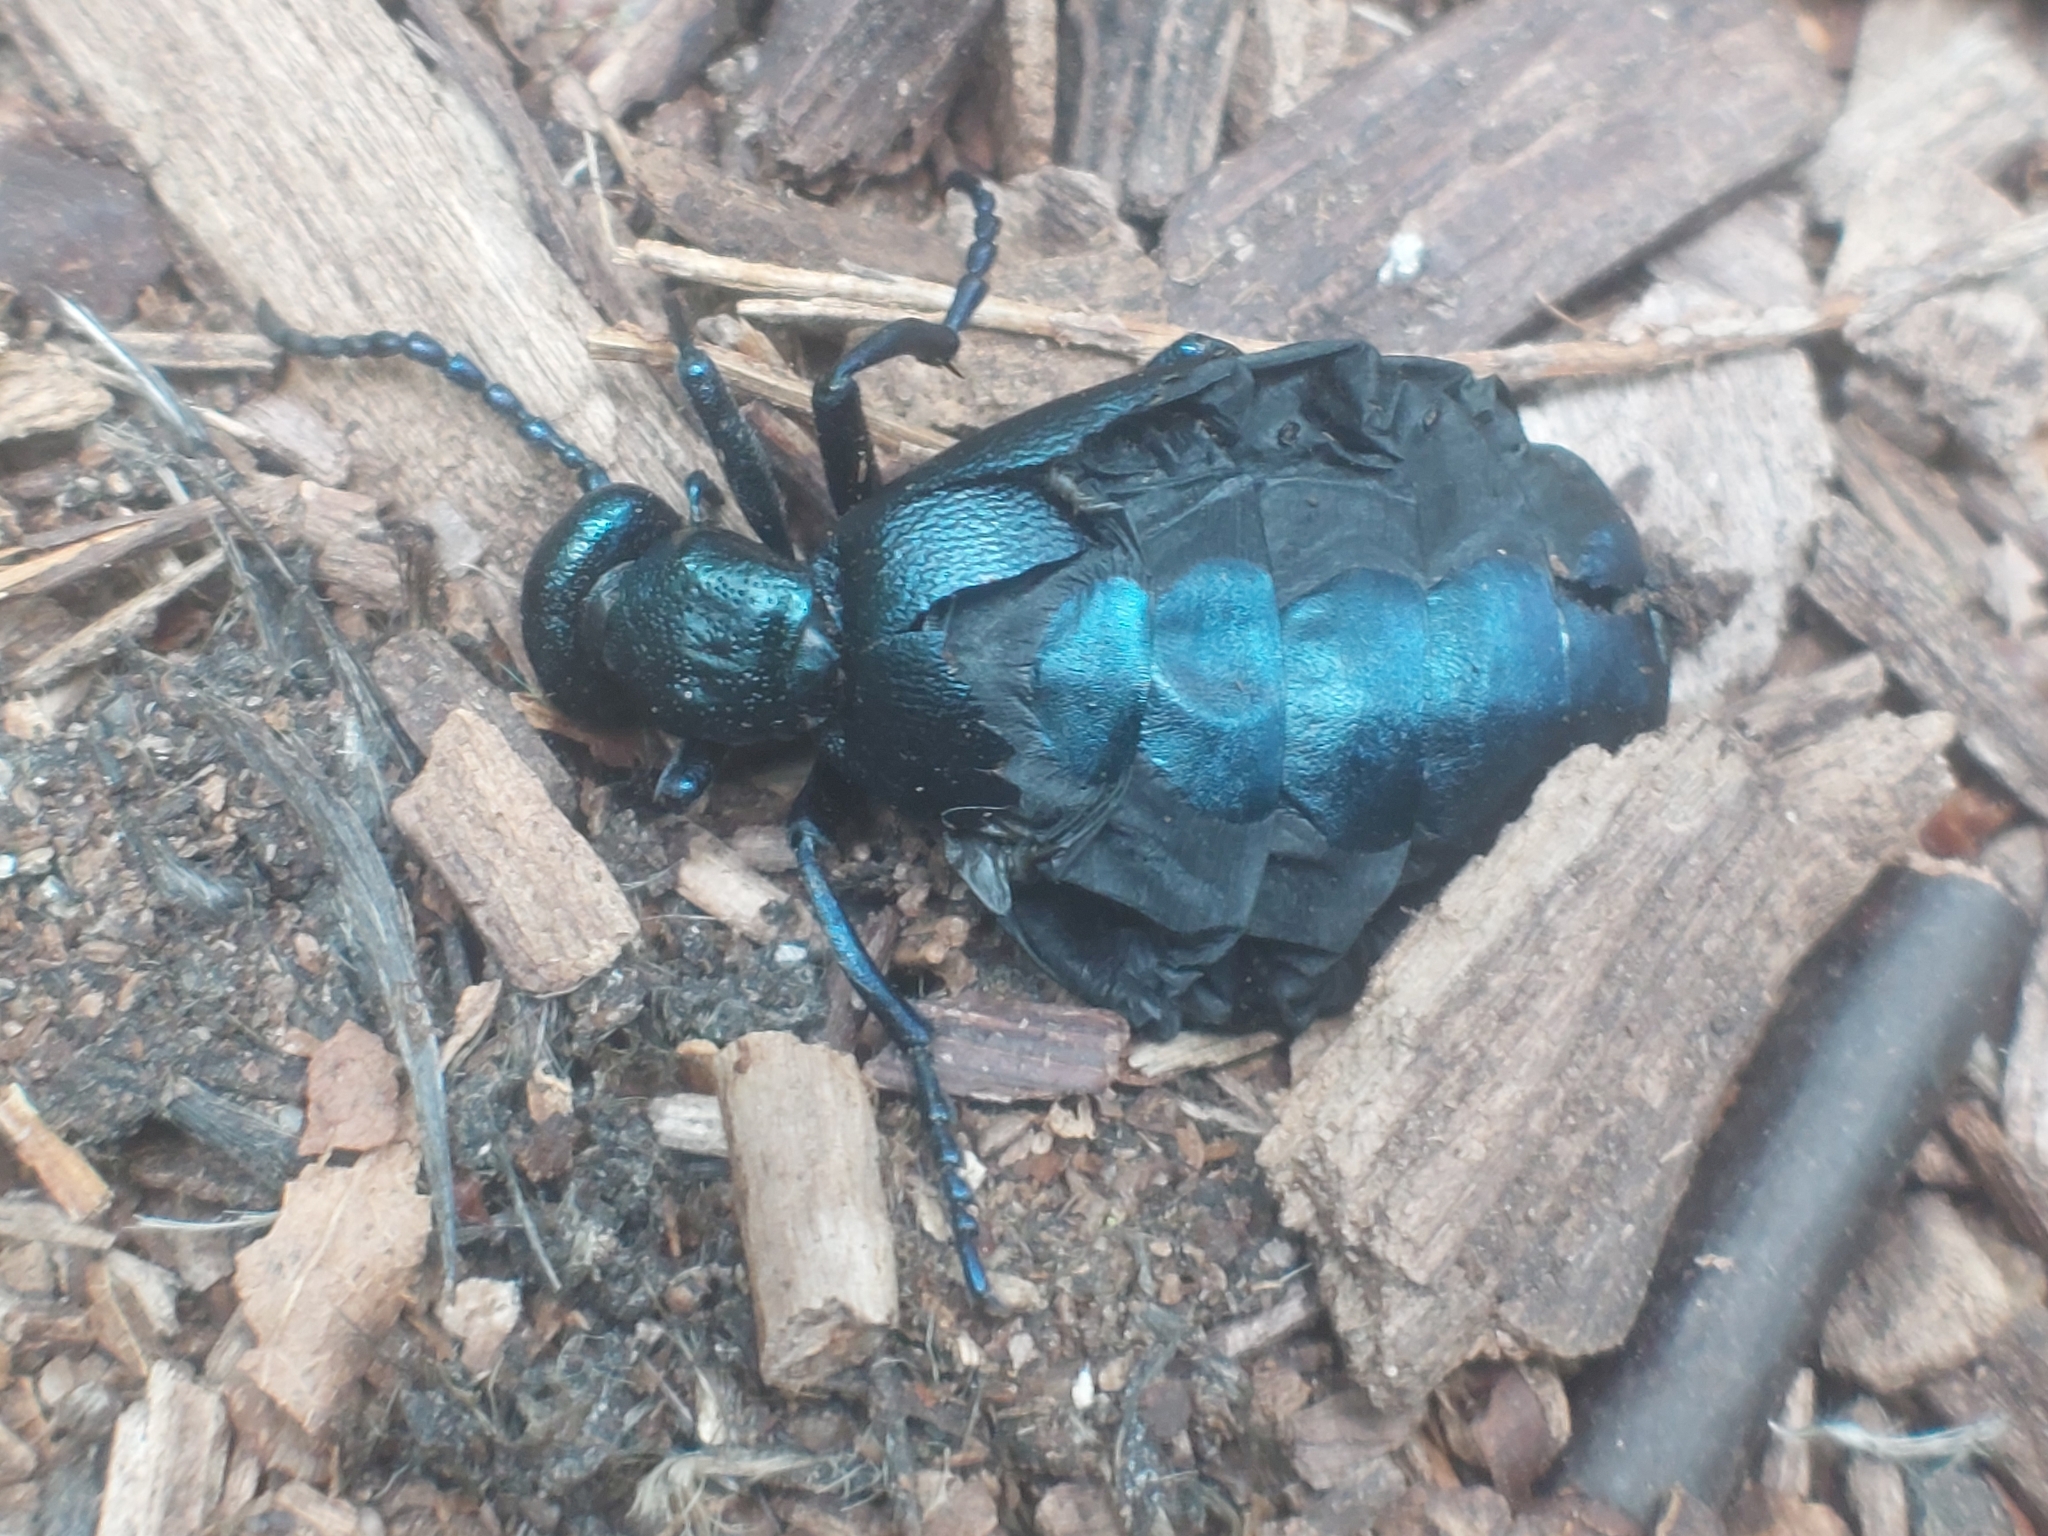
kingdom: Animalia
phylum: Arthropoda
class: Insecta
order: Coleoptera
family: Meloidae
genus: Meloe
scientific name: Meloe violaceus
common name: Violet oil-beetle
